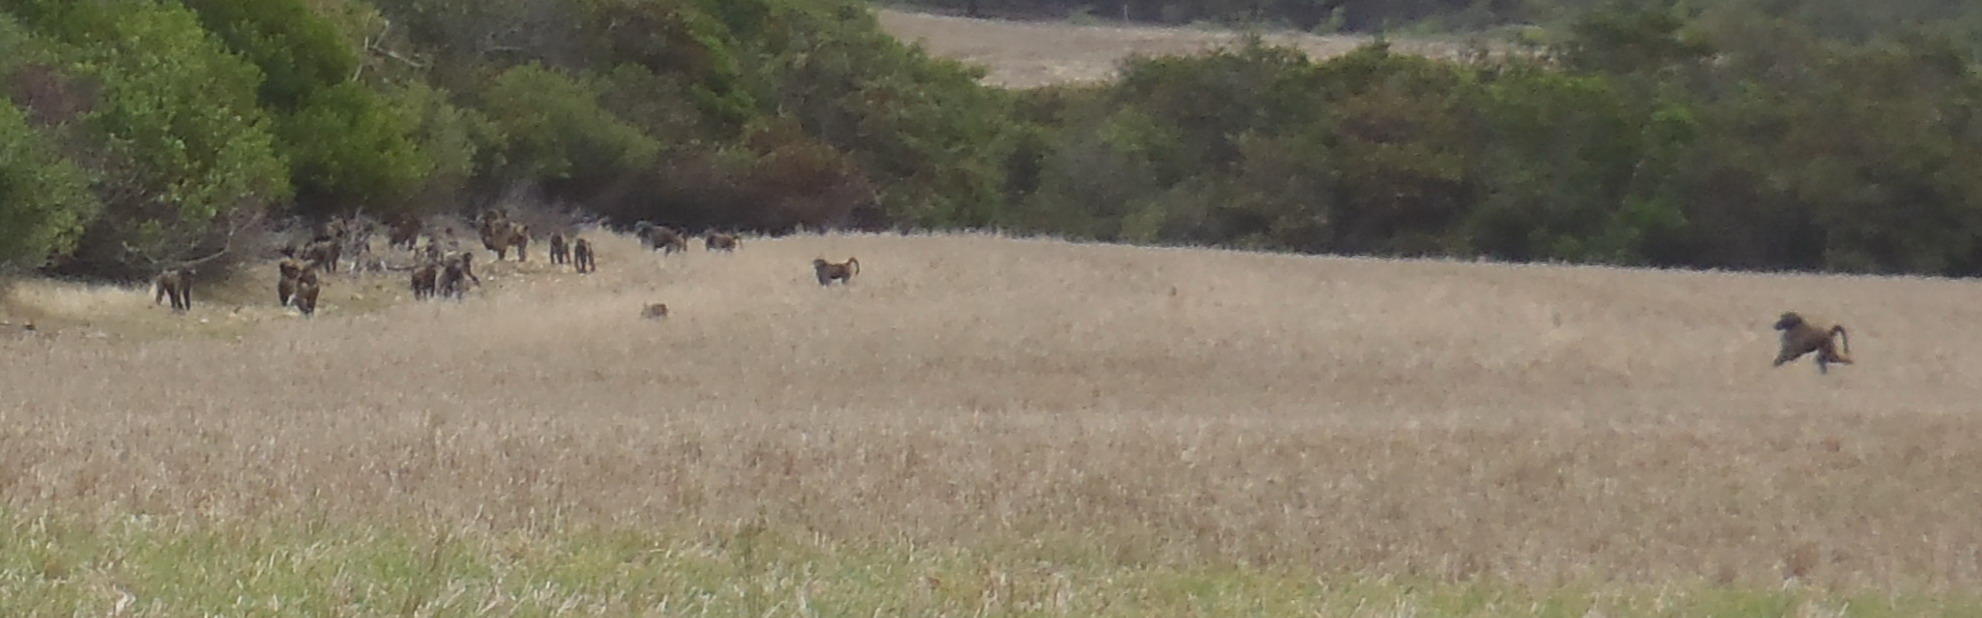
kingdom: Animalia
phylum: Chordata
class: Mammalia
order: Primates
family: Cercopithecidae
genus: Papio
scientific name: Papio ursinus
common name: Chacma baboon
